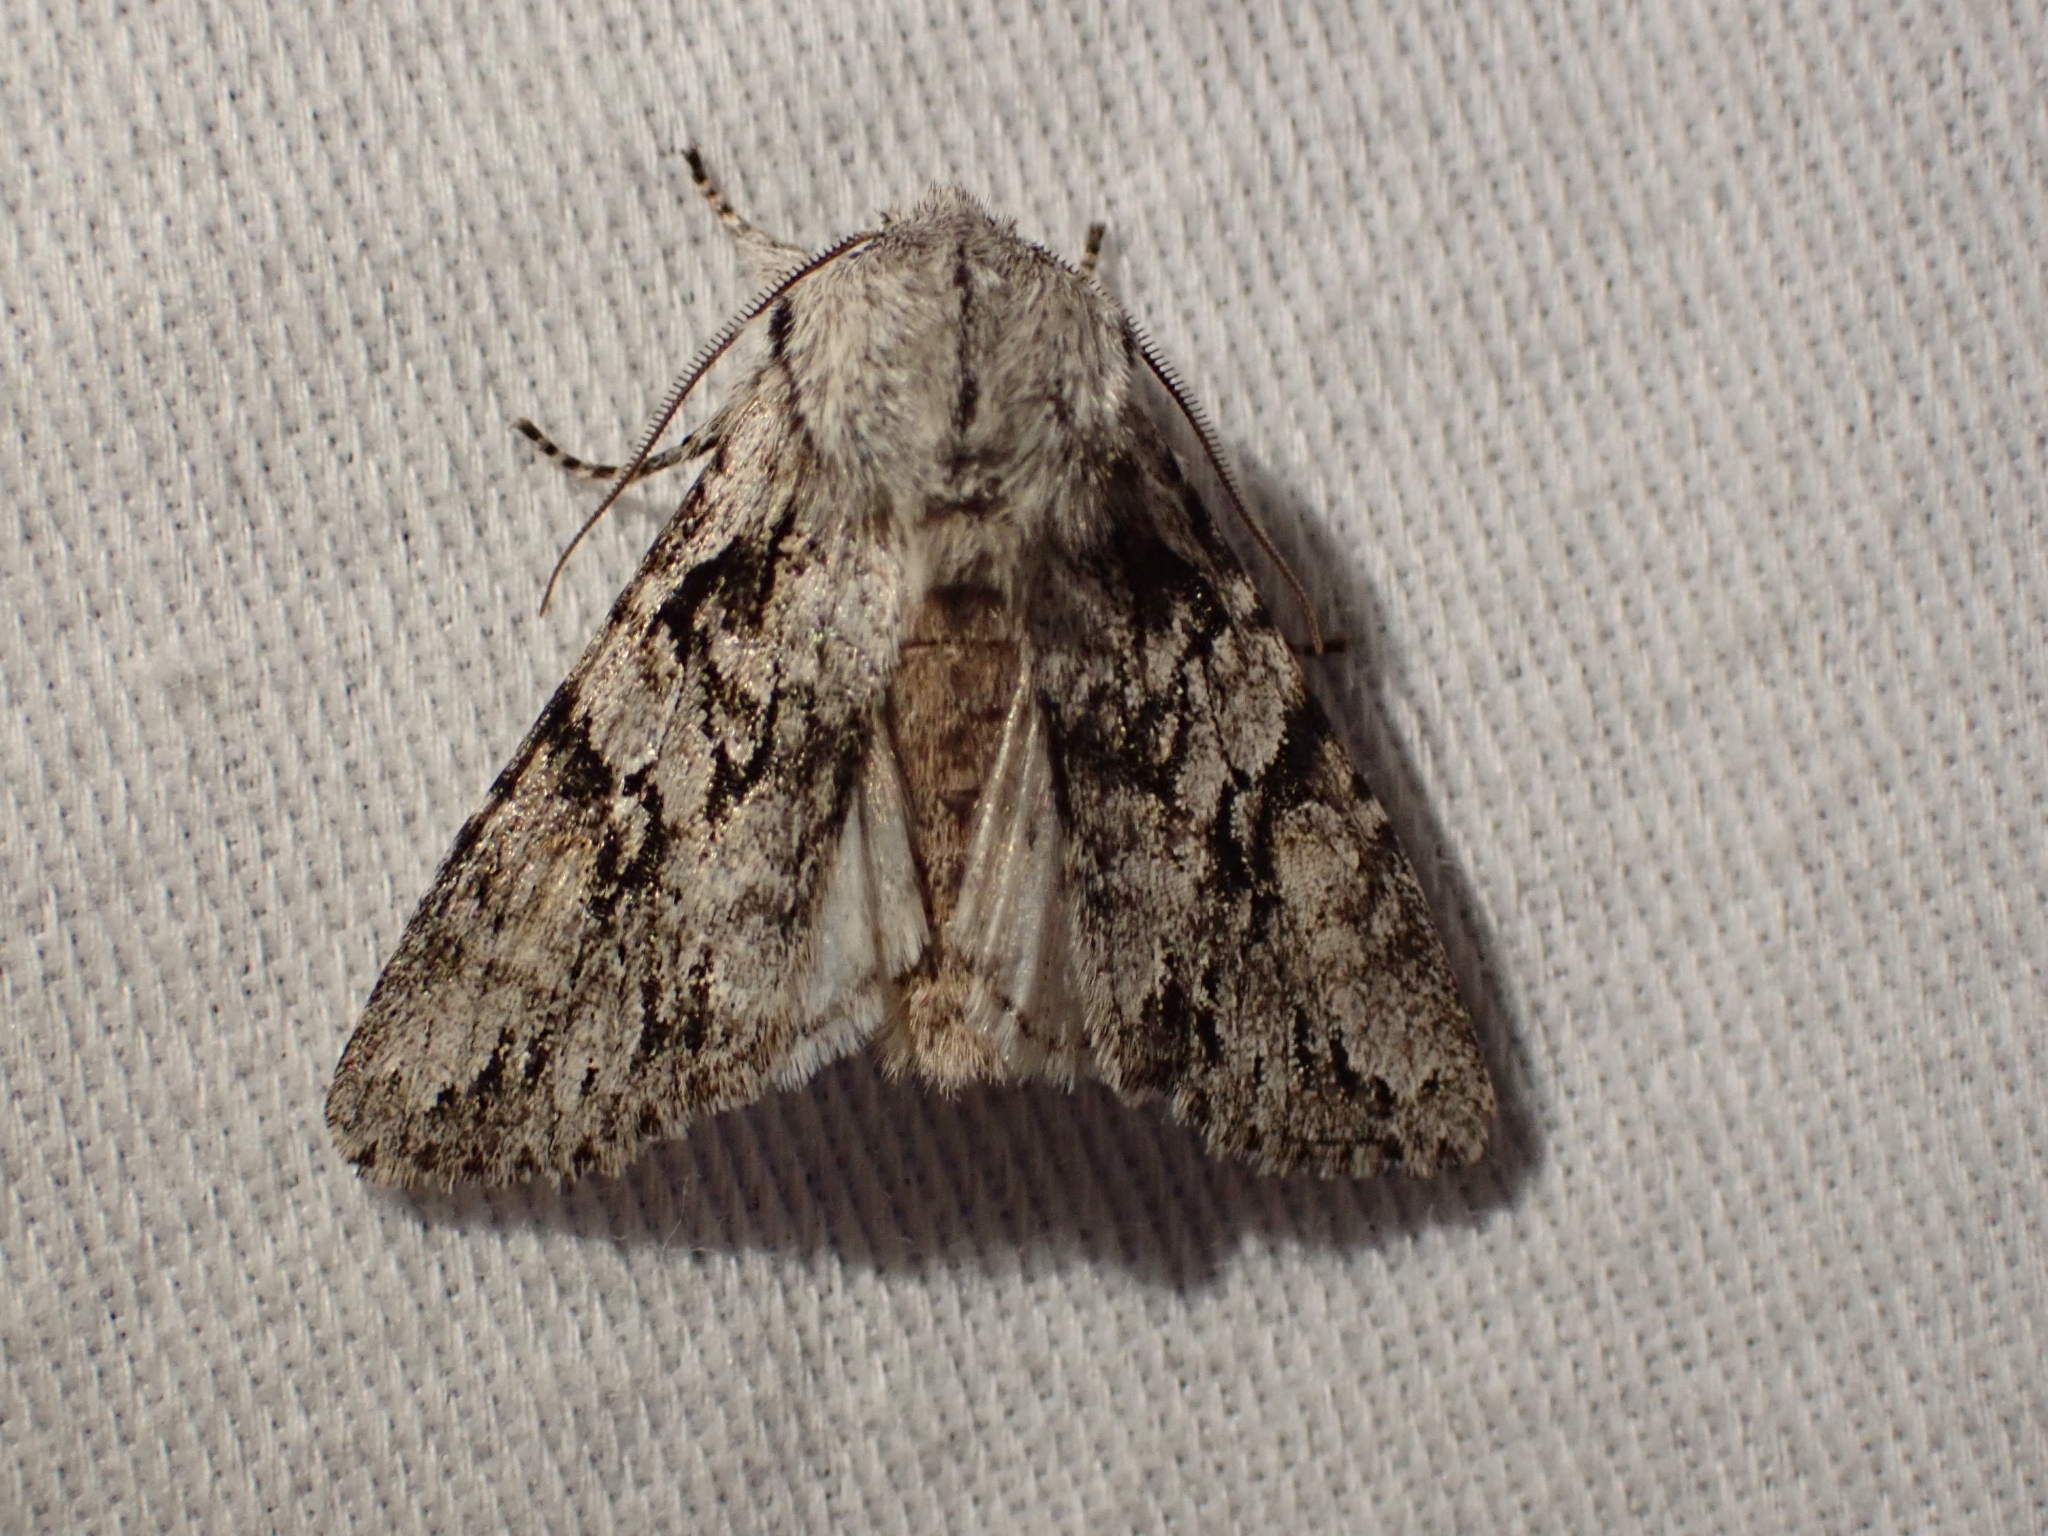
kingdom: Animalia
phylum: Arthropoda
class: Insecta
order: Lepidoptera
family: Noctuidae
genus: Egira
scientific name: Egira simplex
